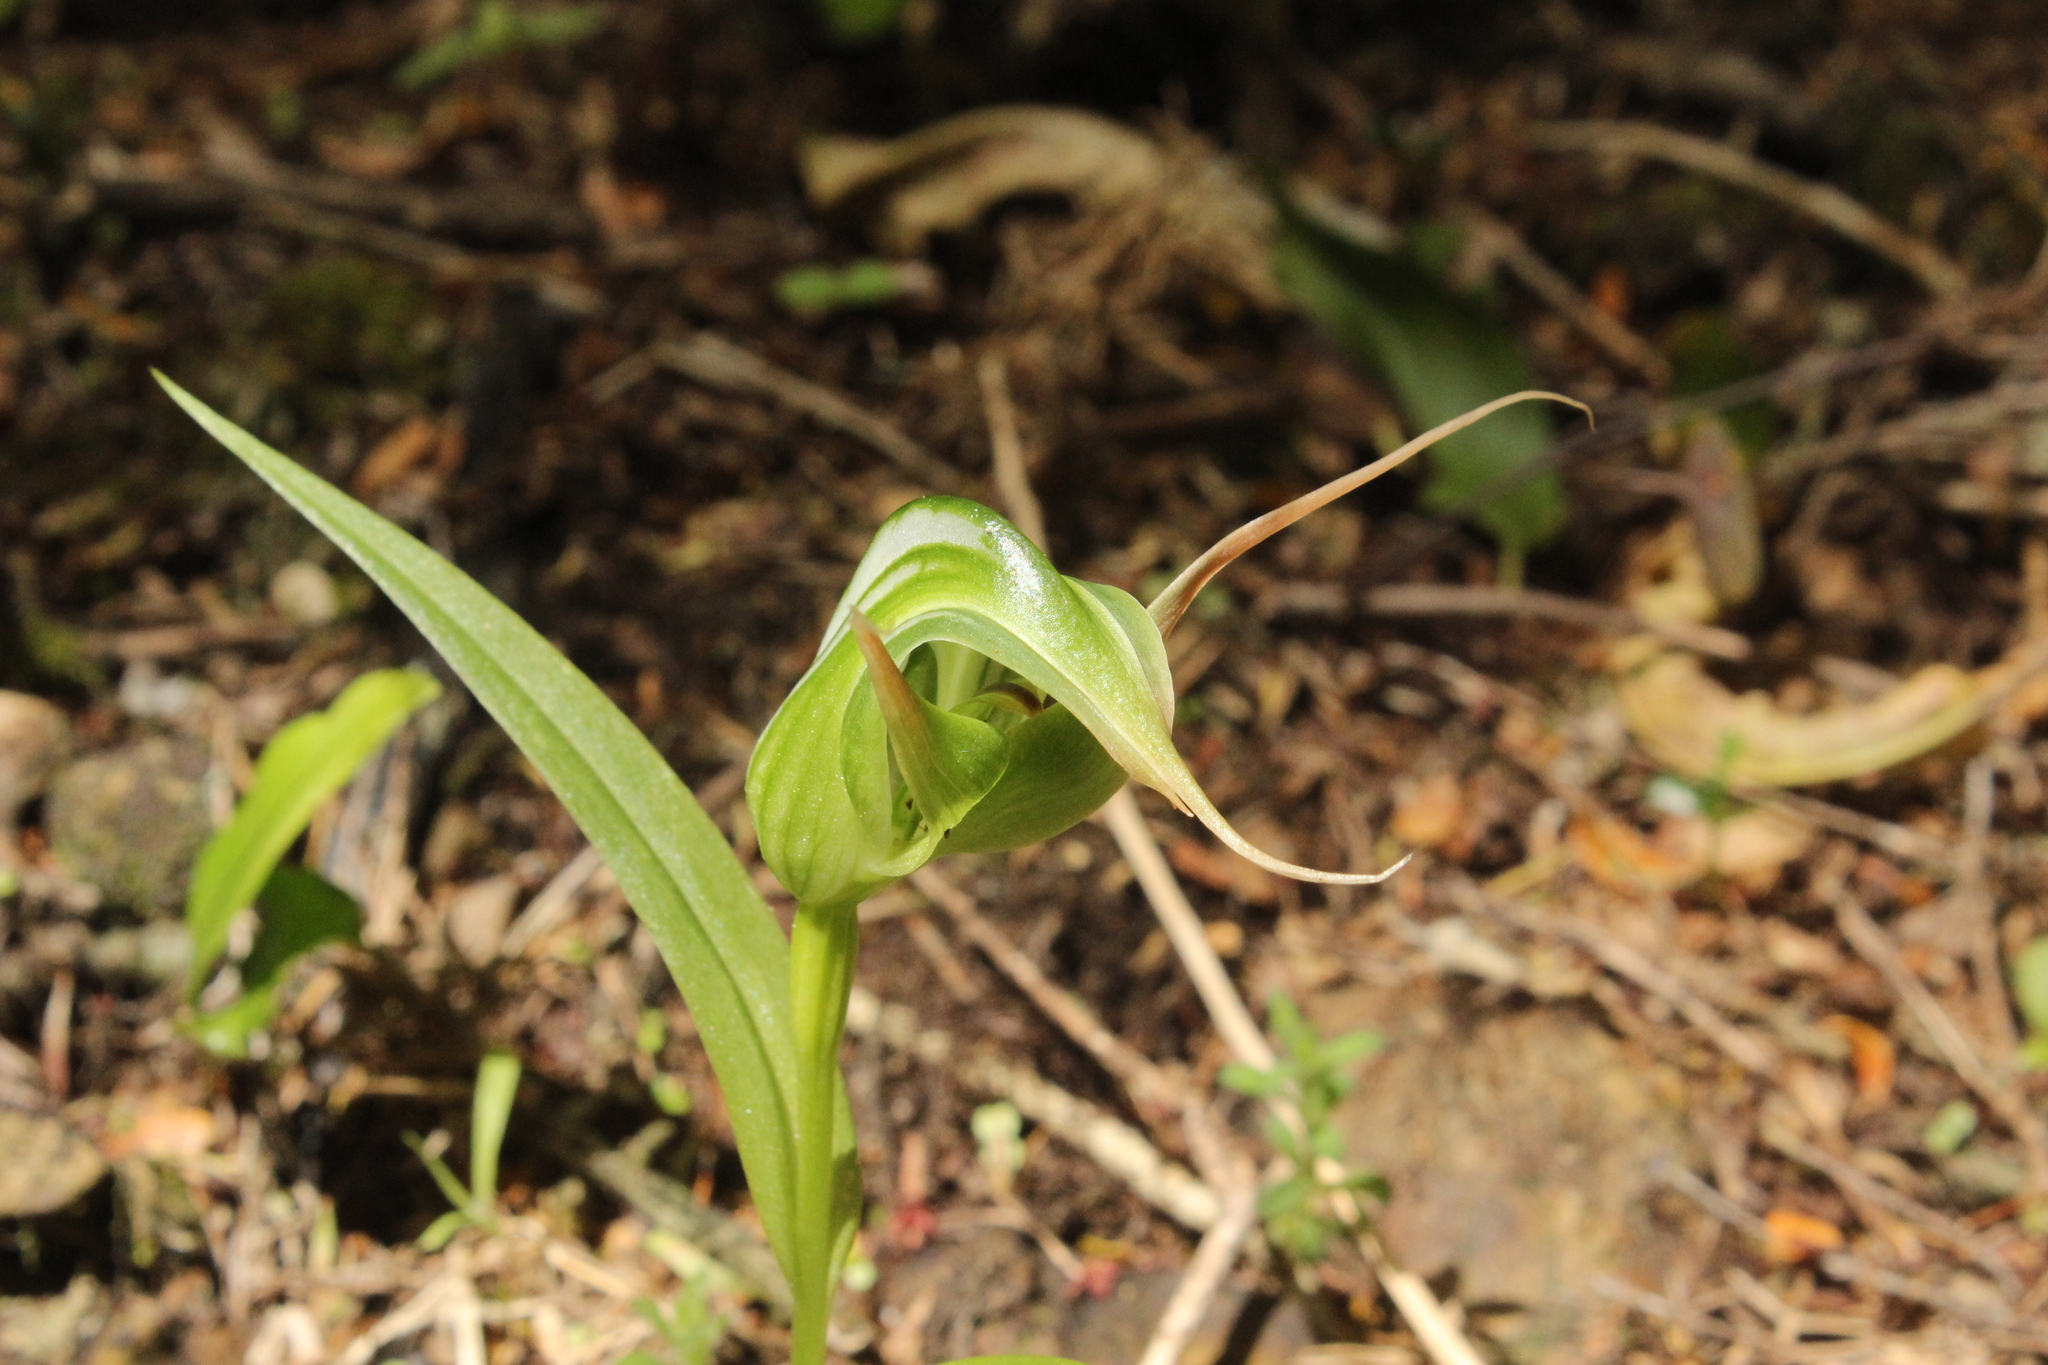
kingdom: Plantae
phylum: Tracheophyta
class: Liliopsida
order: Asparagales
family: Orchidaceae
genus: Pterostylis
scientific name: Pterostylis banksii
